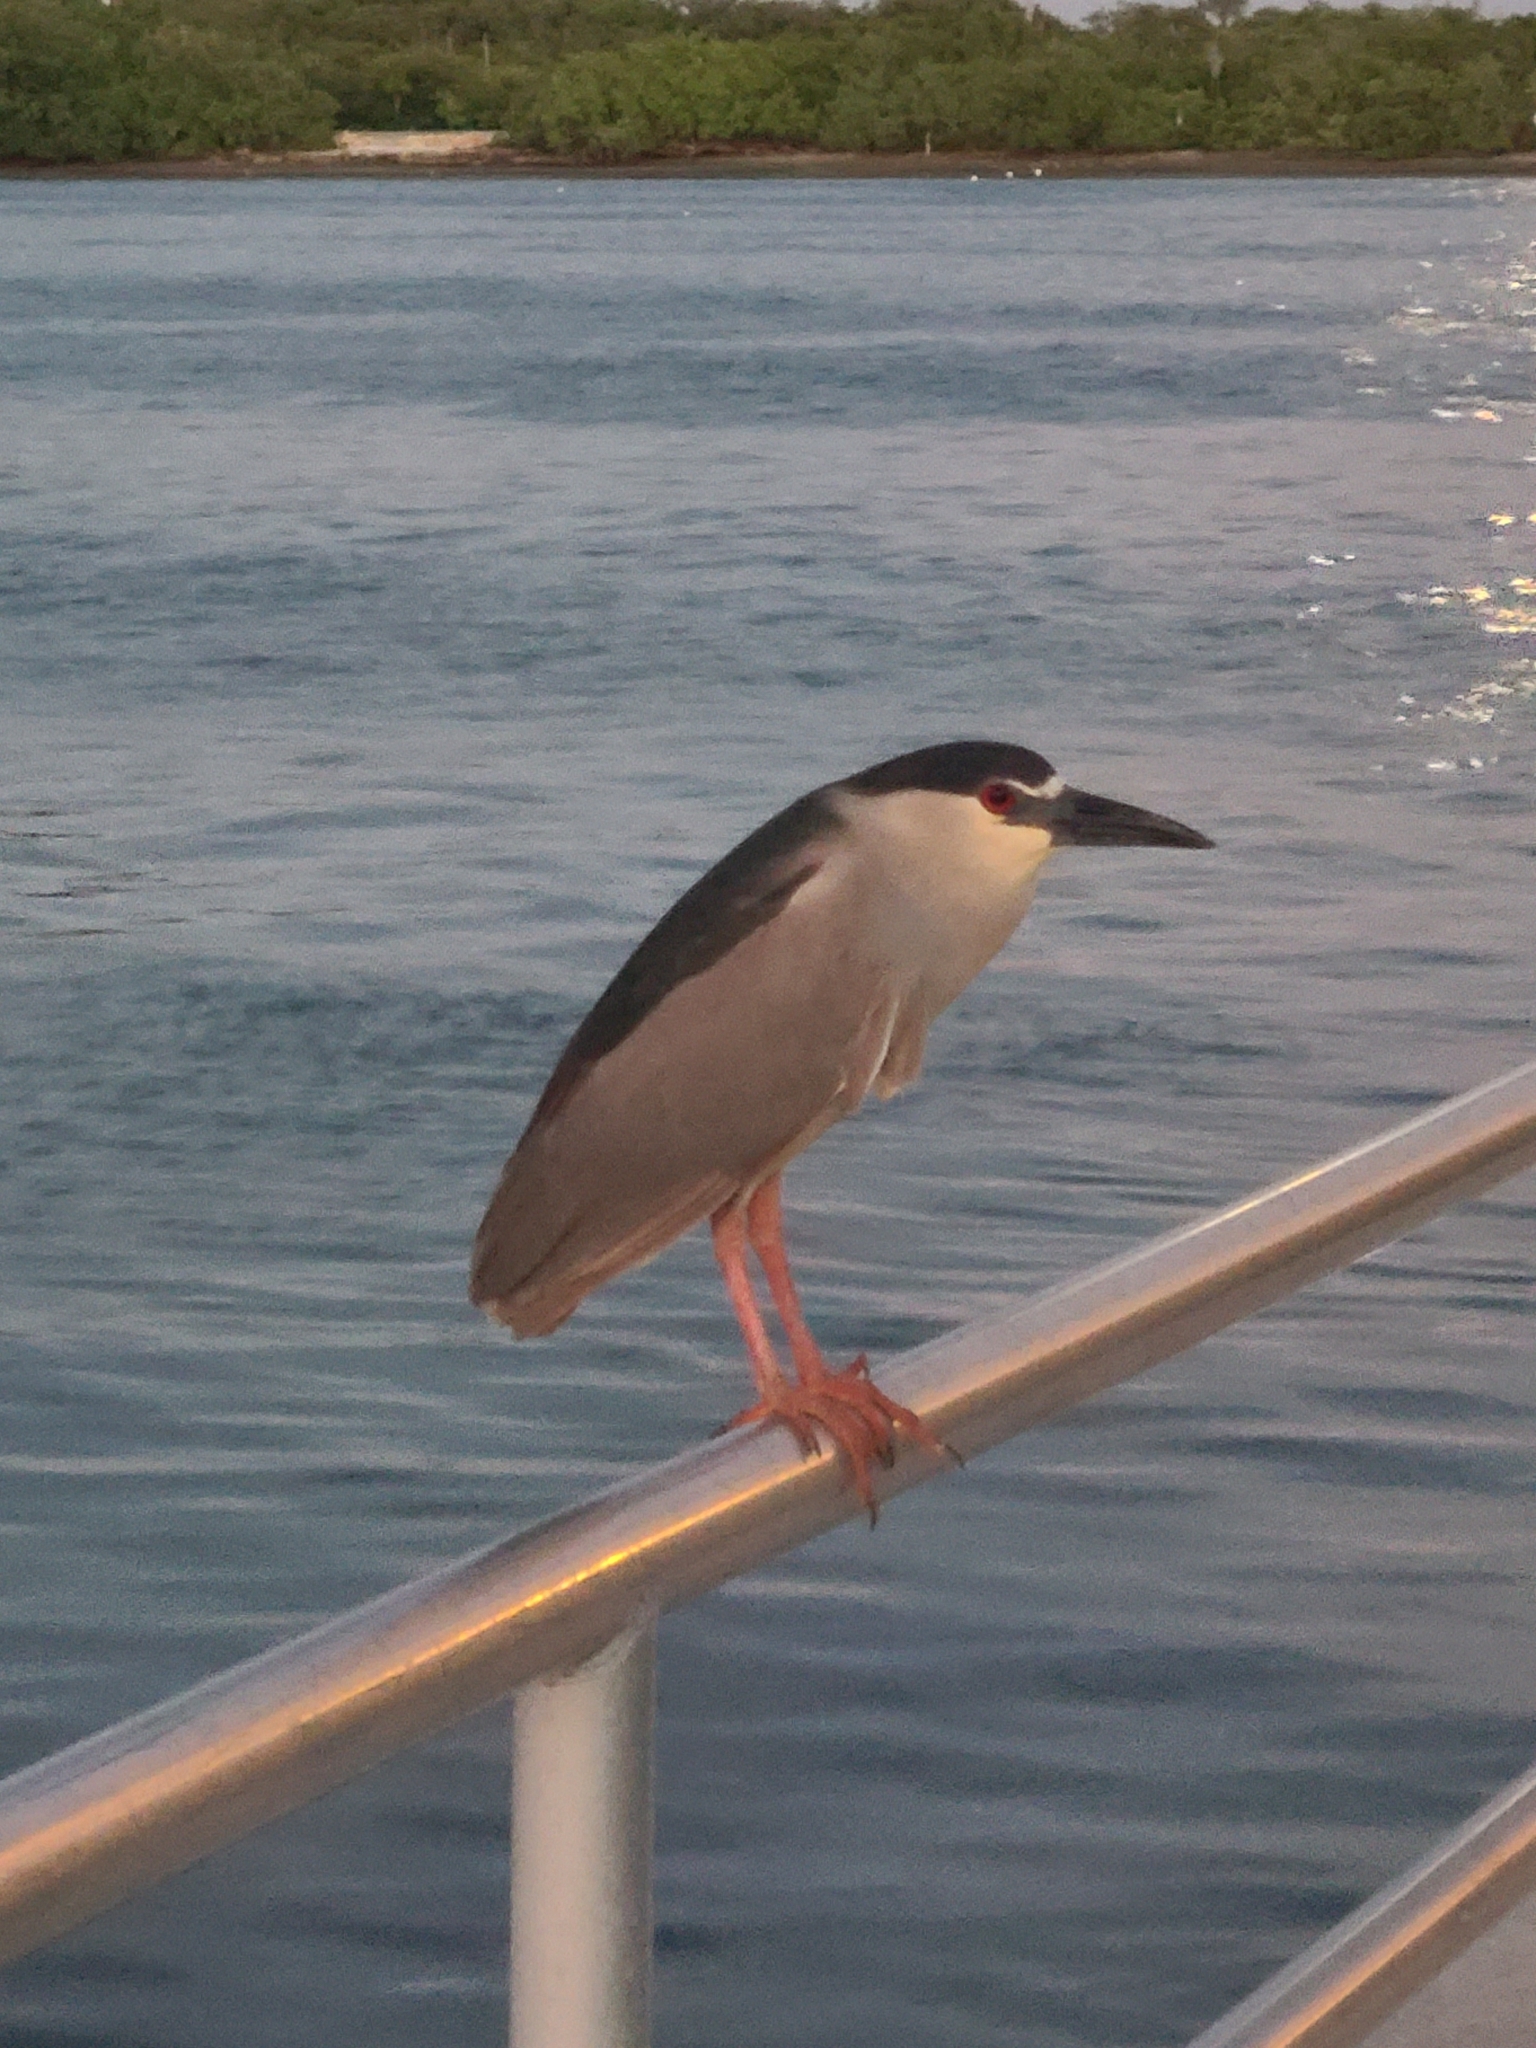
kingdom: Animalia
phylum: Chordata
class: Aves
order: Pelecaniformes
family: Ardeidae
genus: Nycticorax
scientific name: Nycticorax nycticorax
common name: Black-crowned night heron
